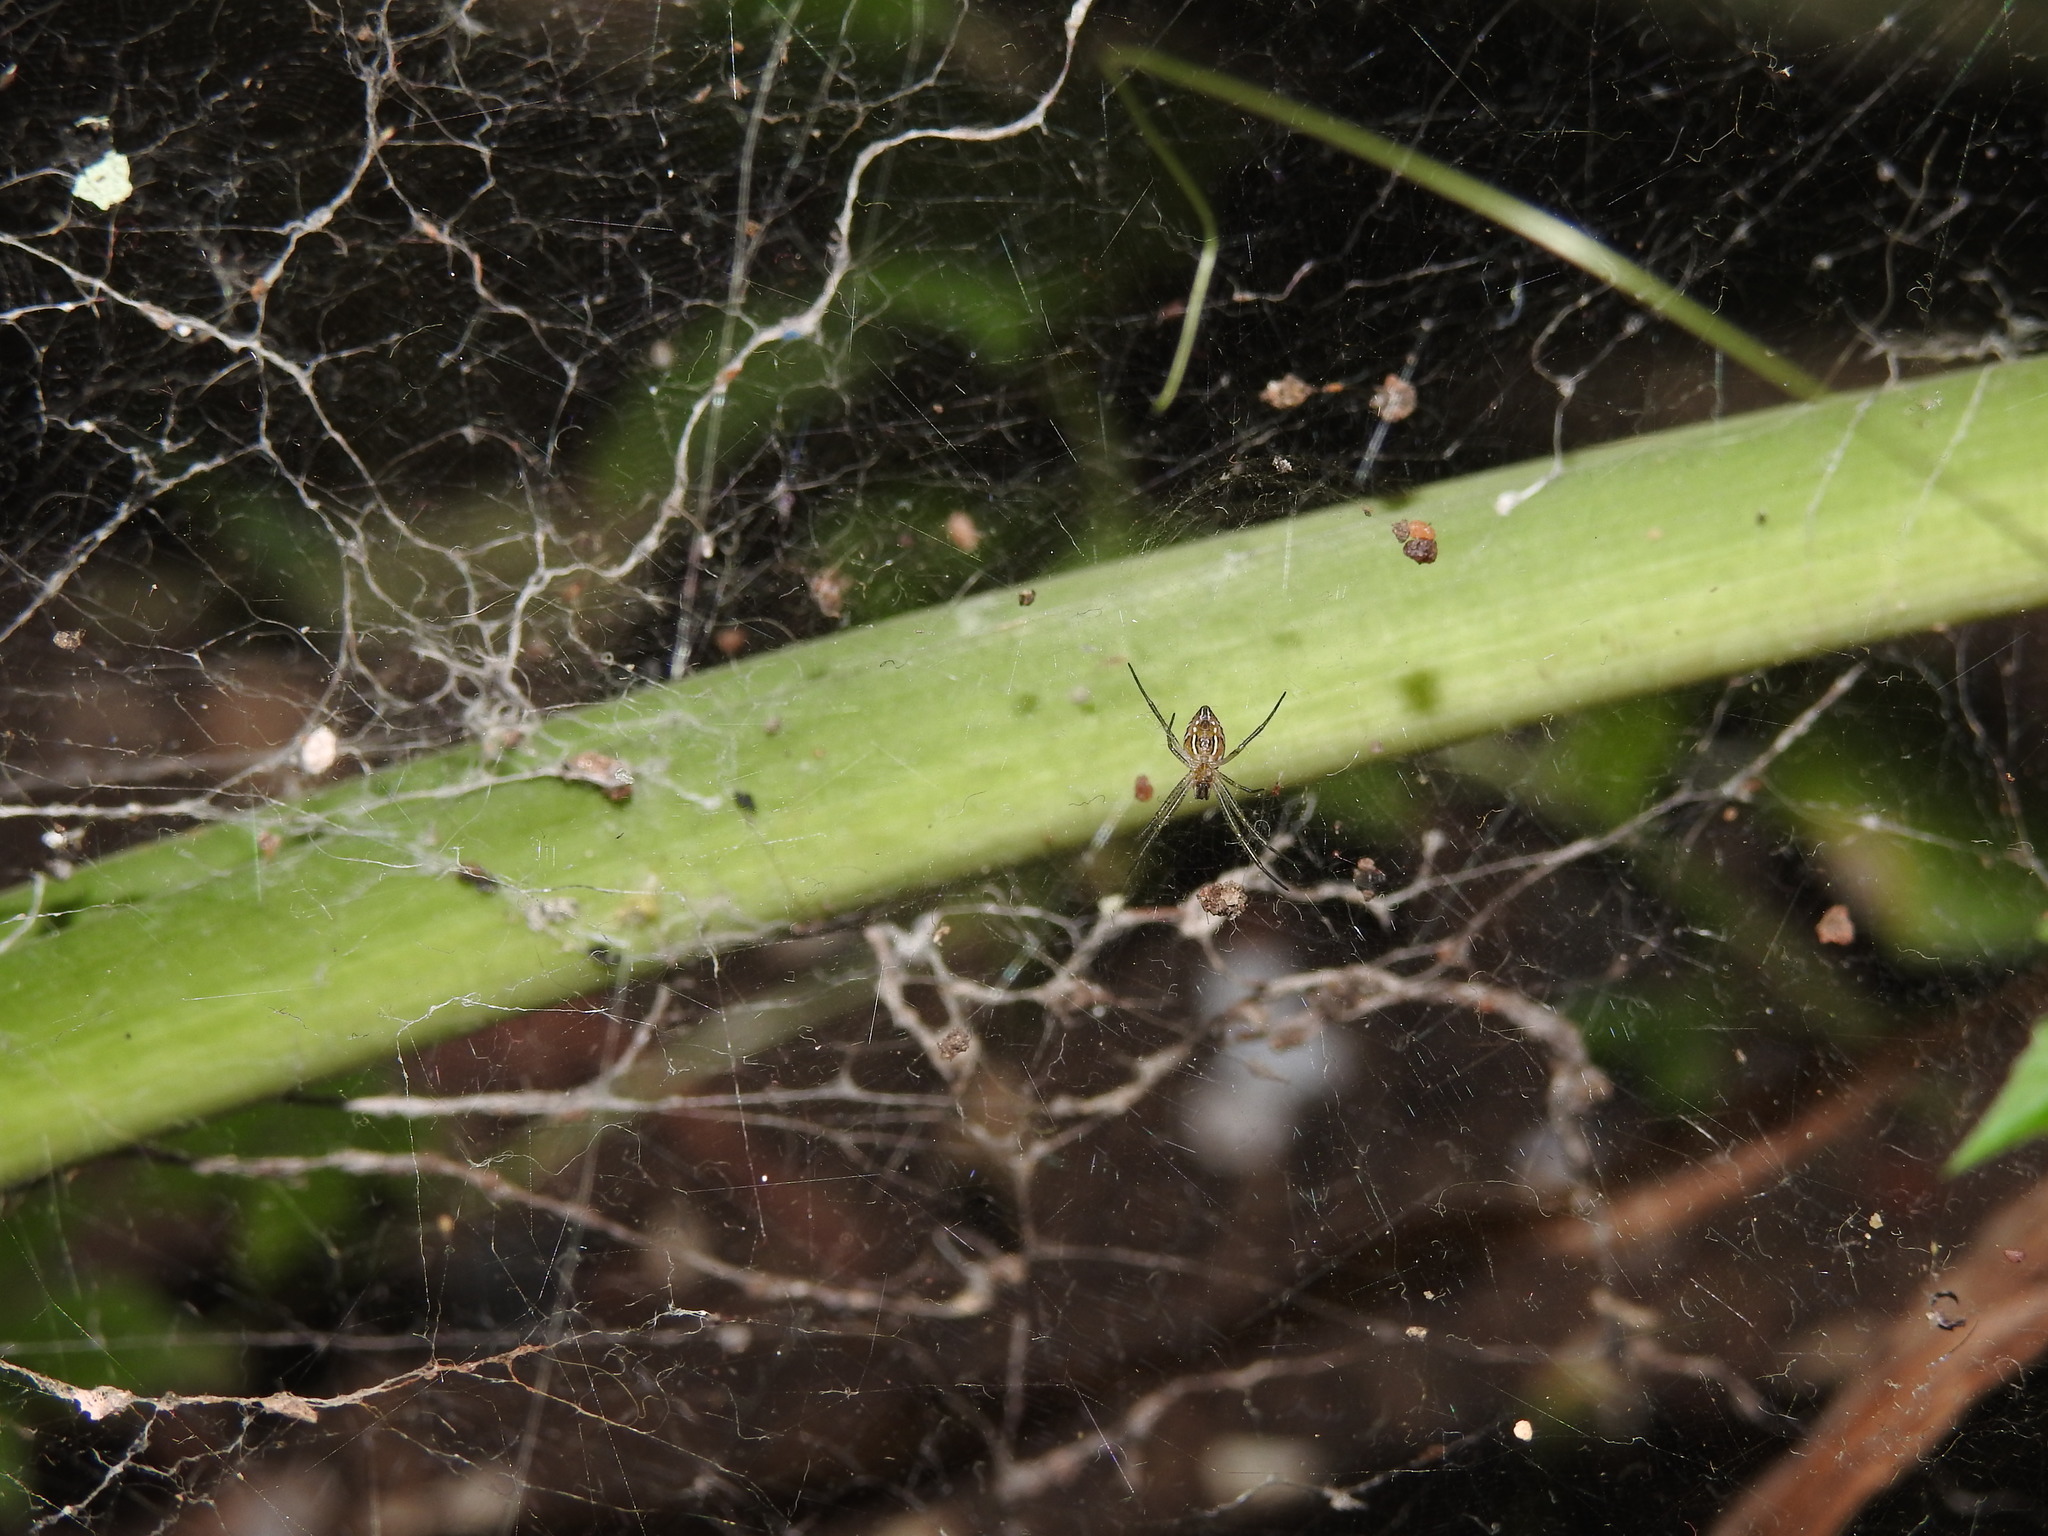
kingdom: Animalia
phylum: Arthropoda
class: Arachnida
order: Araneae
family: Araneidae
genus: Cyrtophora
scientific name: Cyrtophora cicatrosa
